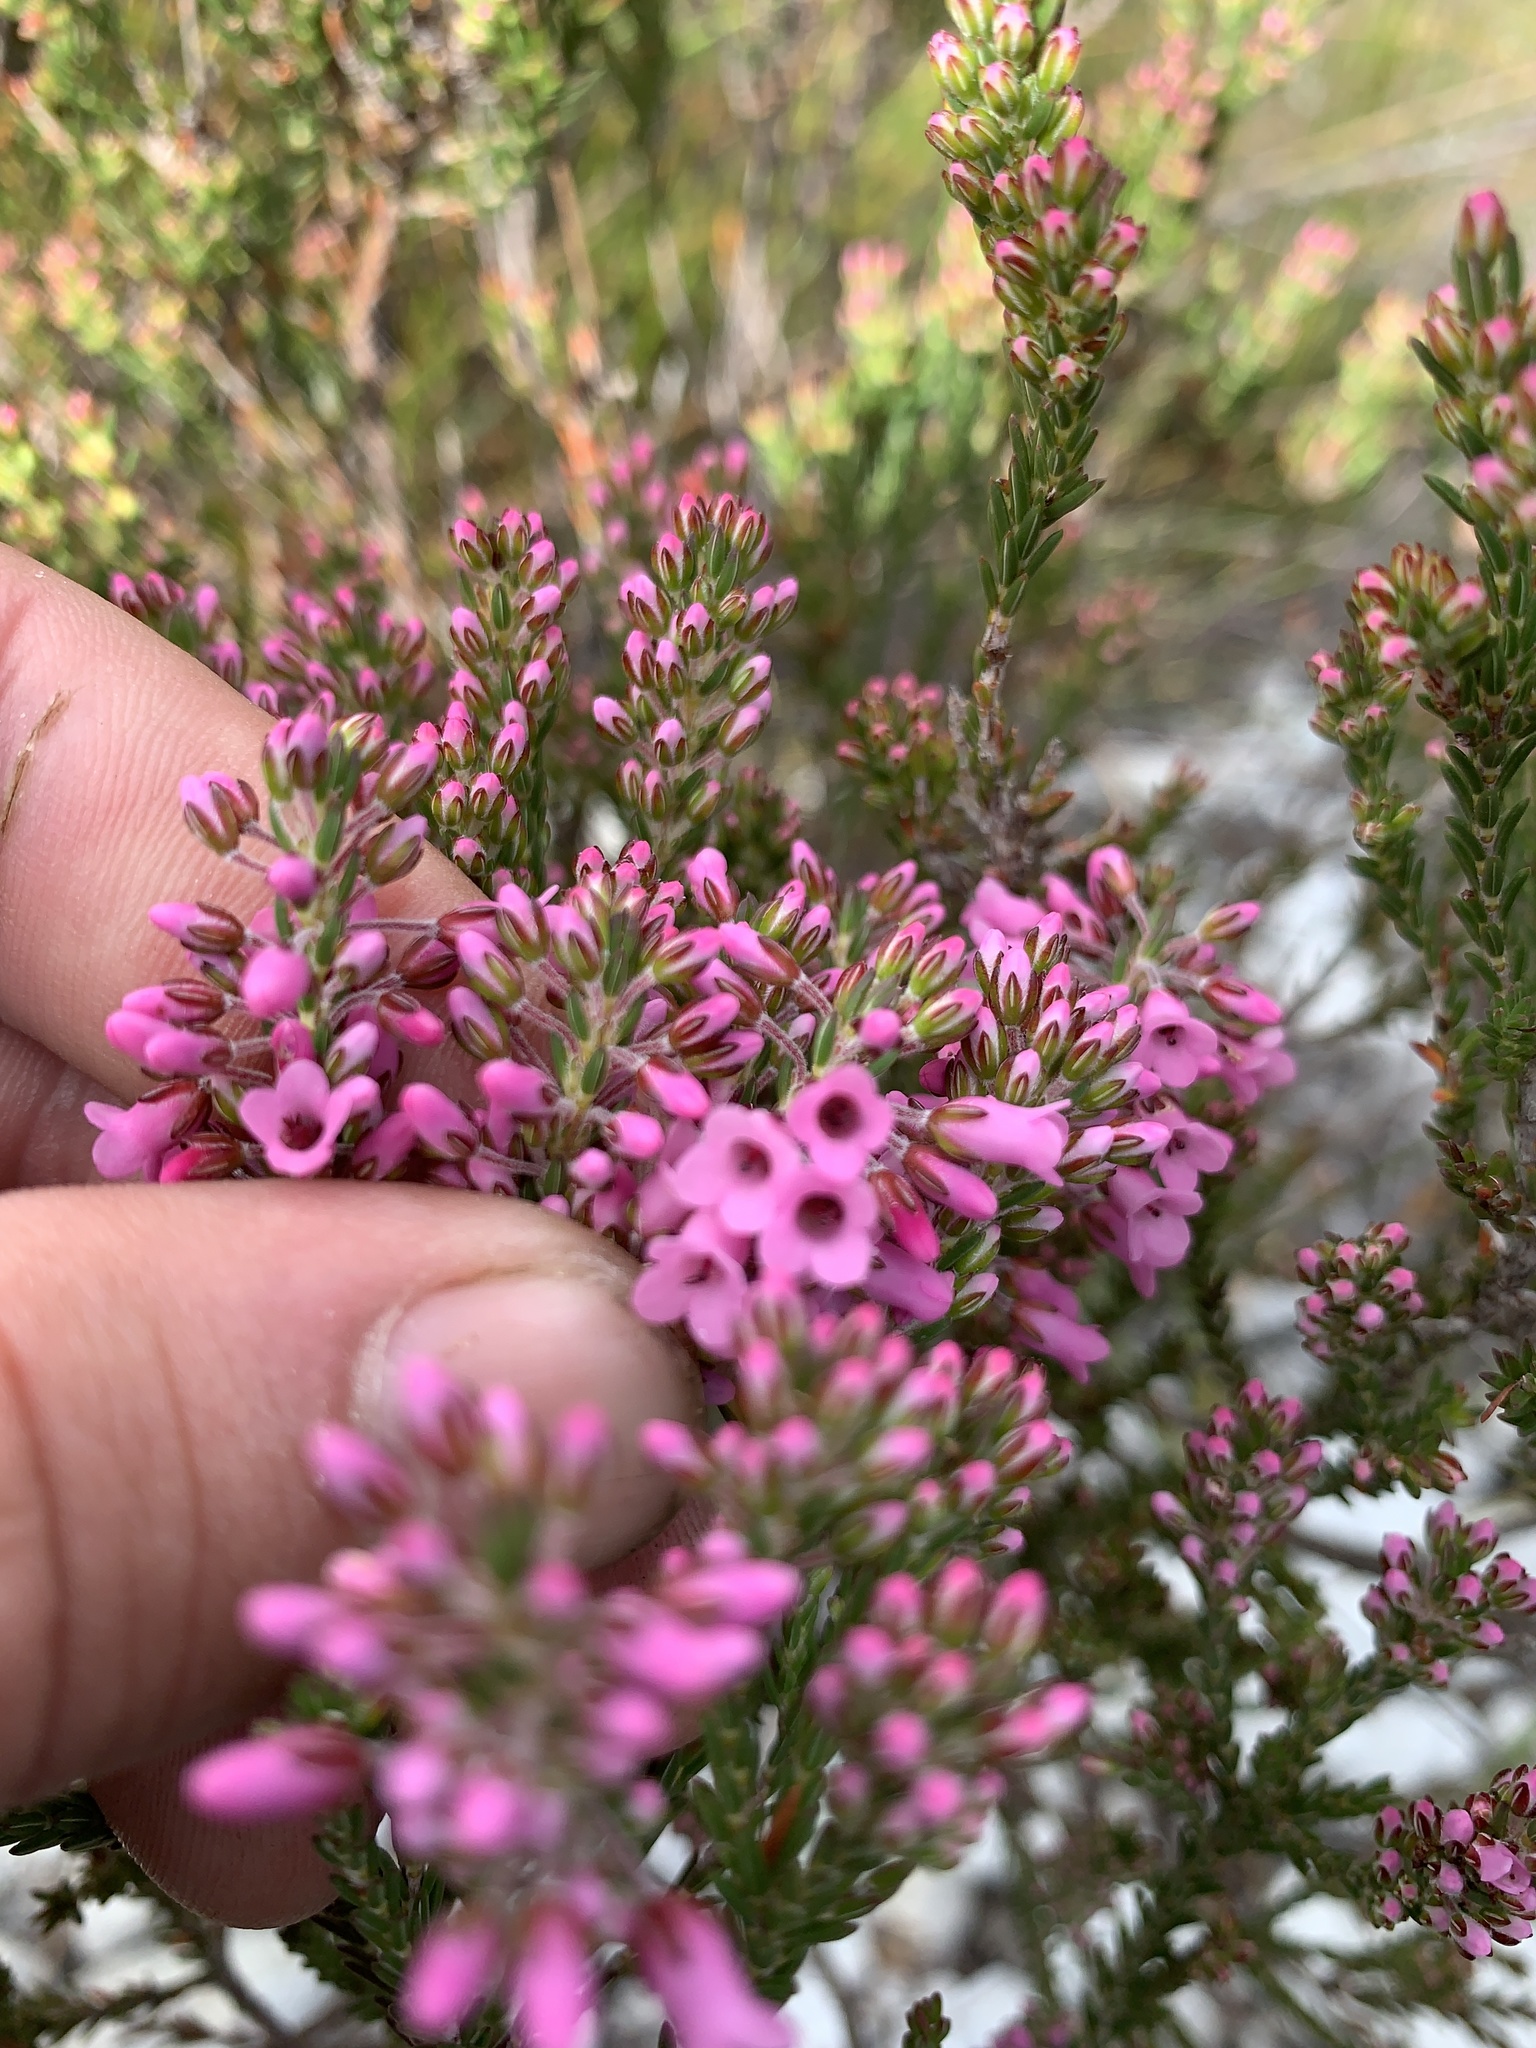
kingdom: Plantae
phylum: Tracheophyta
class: Magnoliopsida
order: Ericales
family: Ericaceae
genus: Erica
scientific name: Erica pulchella
